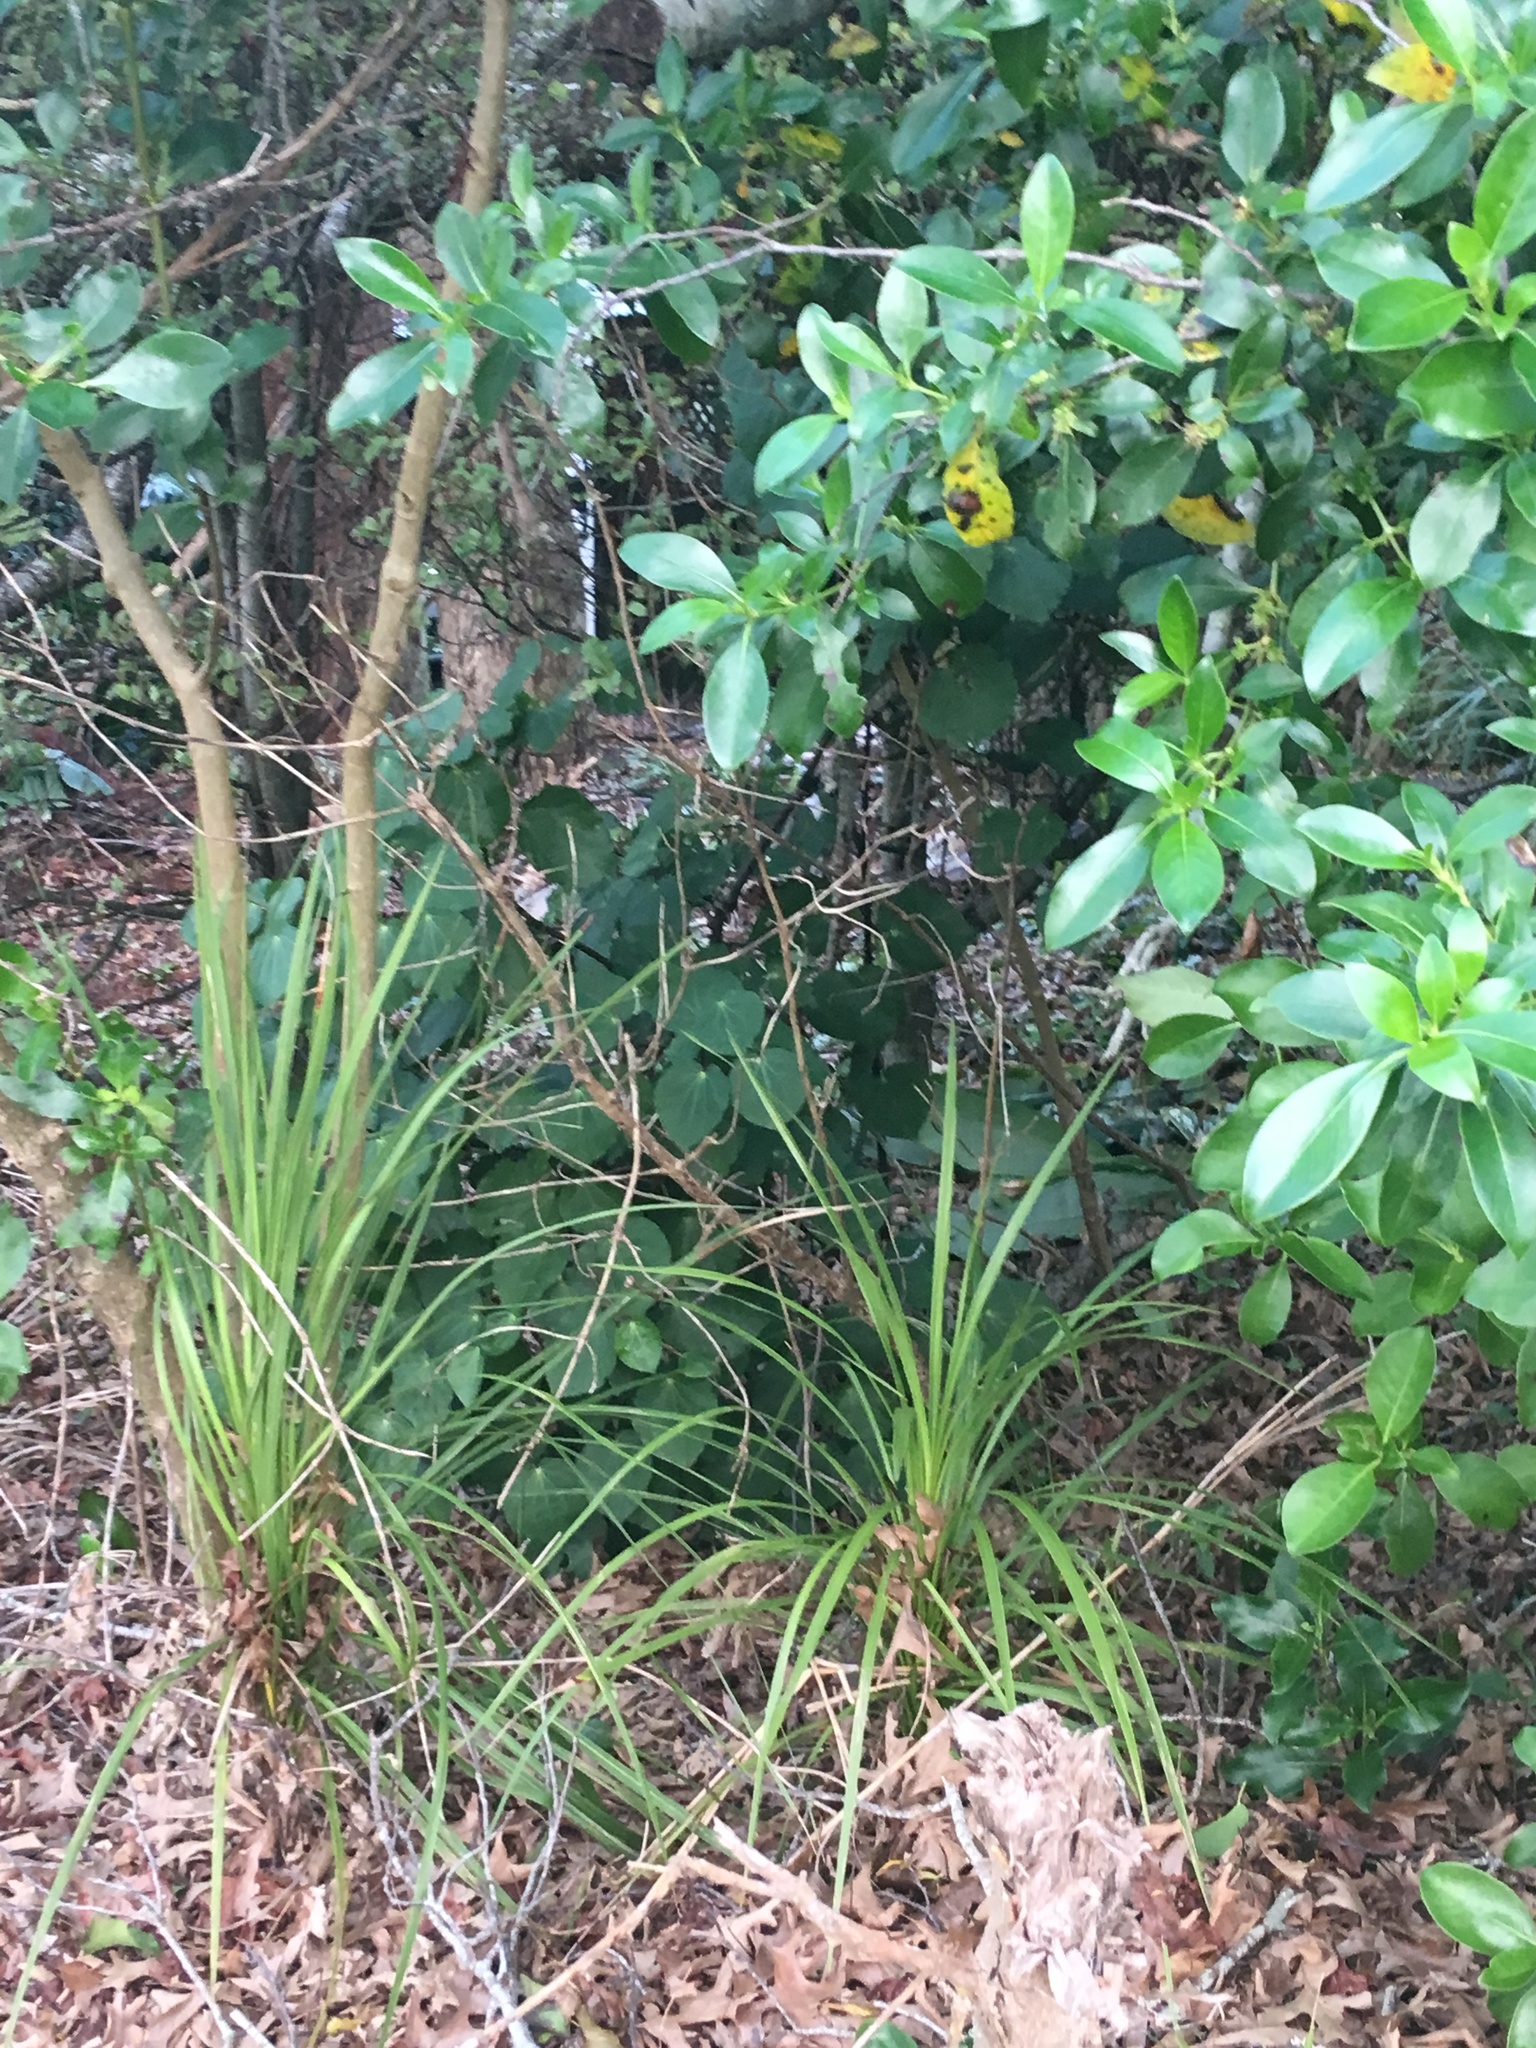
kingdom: Plantae
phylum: Tracheophyta
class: Liliopsida
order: Asparagales
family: Asparagaceae
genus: Cordyline
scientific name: Cordyline australis
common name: Cabbage-palm
